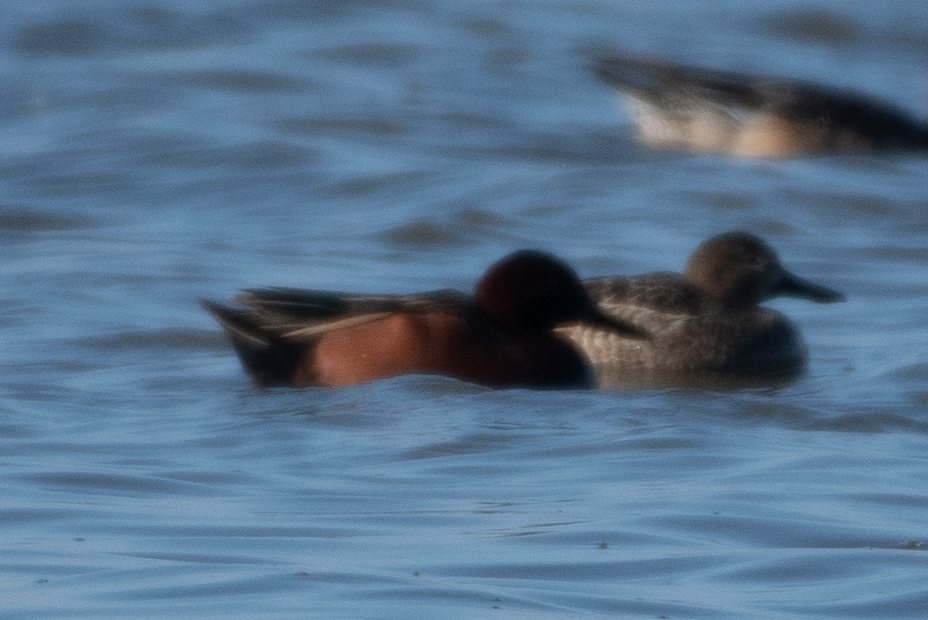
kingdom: Animalia
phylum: Chordata
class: Aves
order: Anseriformes
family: Anatidae
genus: Spatula
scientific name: Spatula cyanoptera
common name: Cinnamon teal
